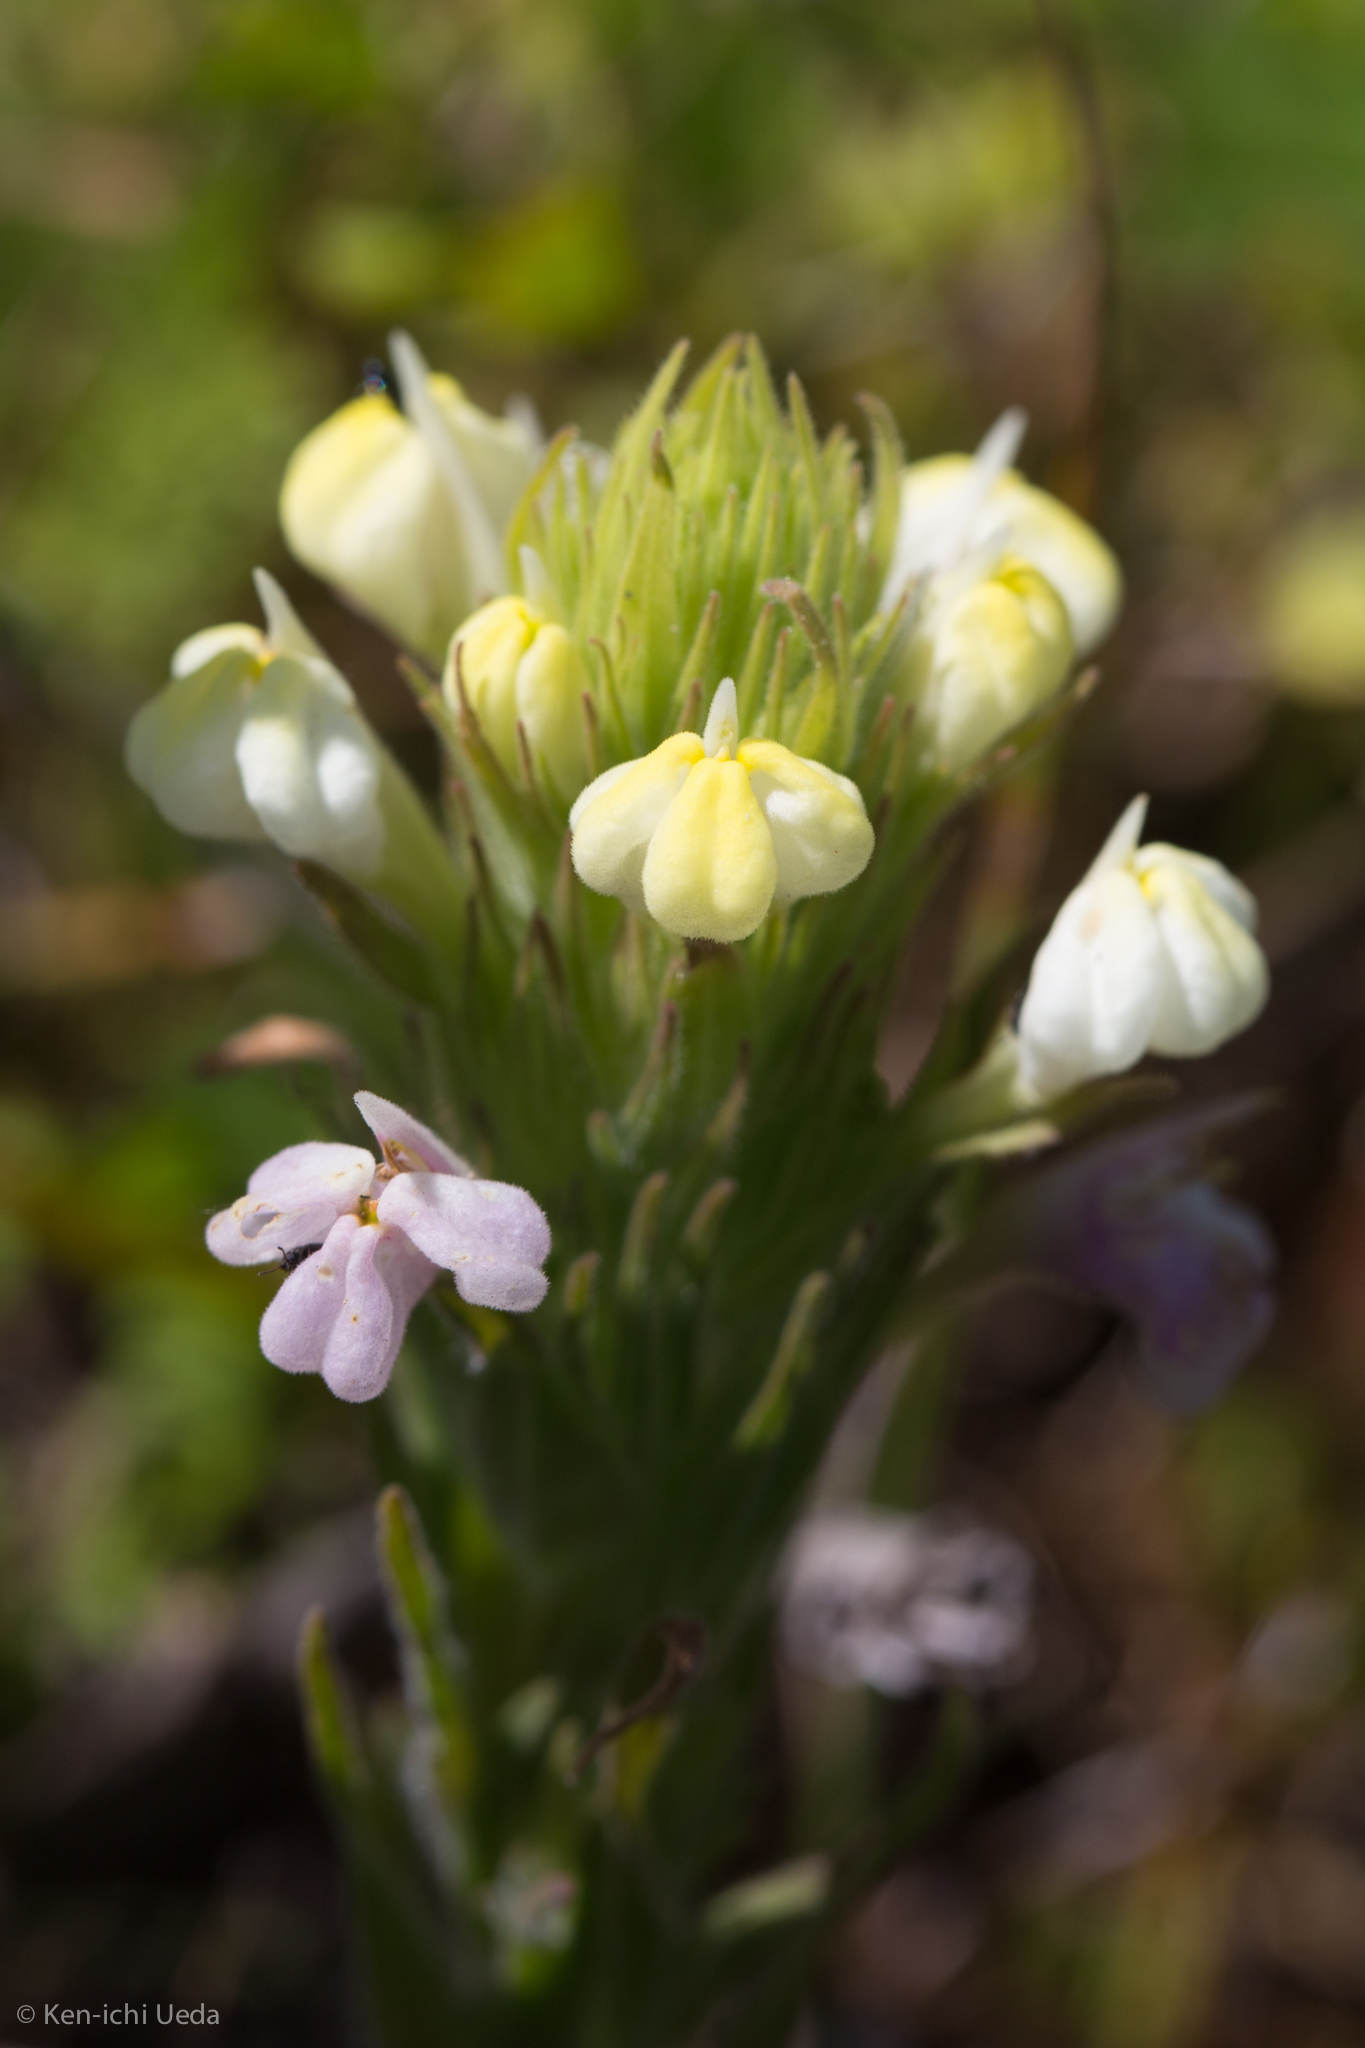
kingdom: Plantae
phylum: Tracheophyta
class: Magnoliopsida
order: Lamiales
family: Orobanchaceae
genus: Castilleja
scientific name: Castilleja rubicundula
